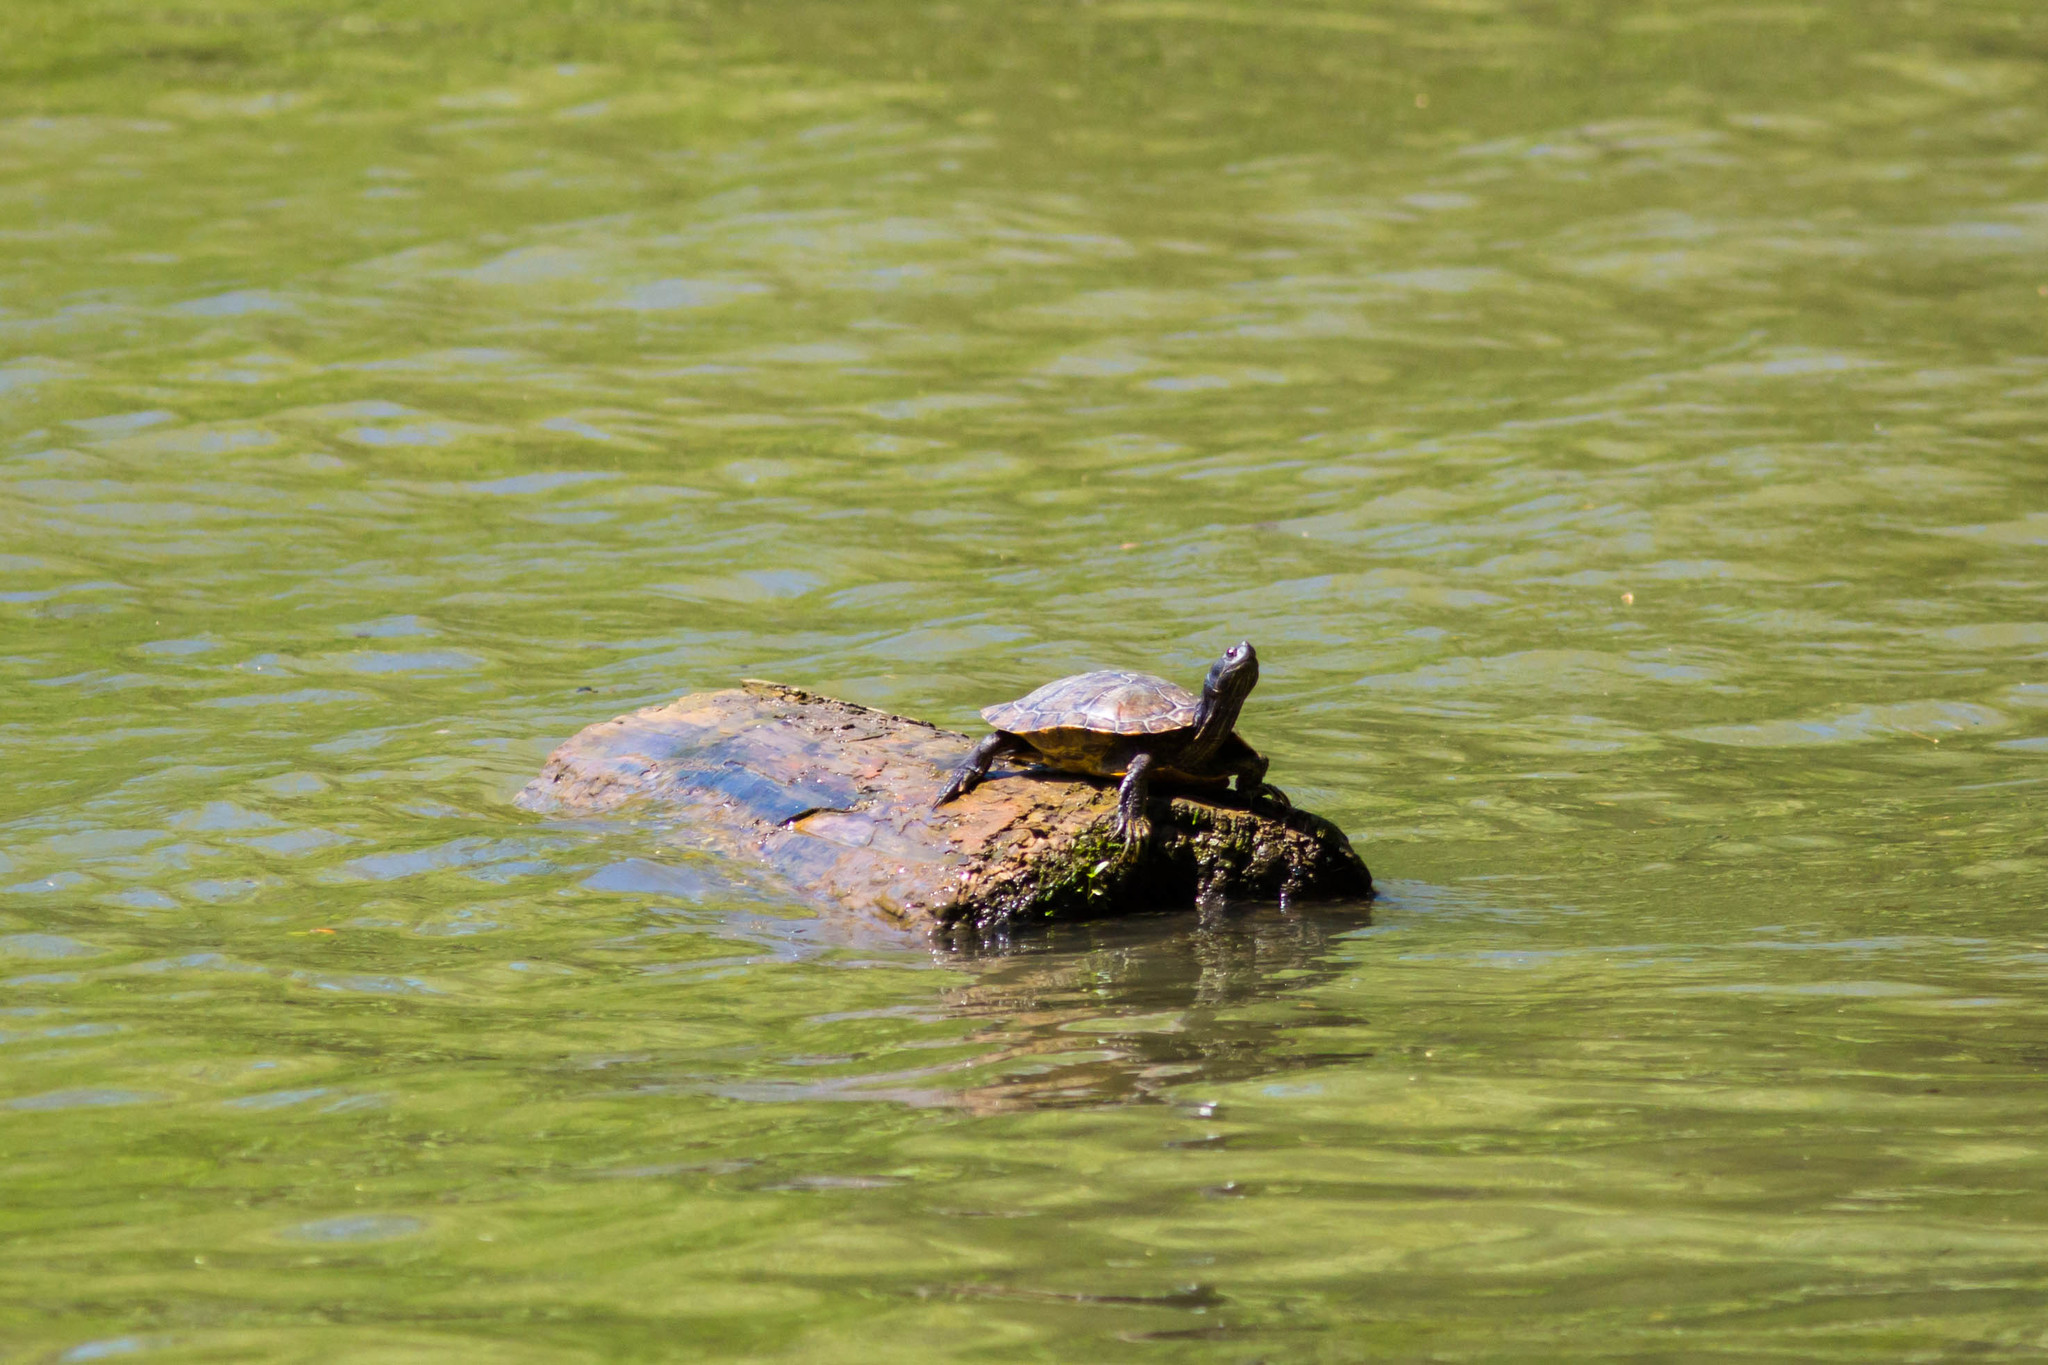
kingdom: Animalia
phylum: Chordata
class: Testudines
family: Emydidae
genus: Trachemys
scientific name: Trachemys scripta
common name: Slider
